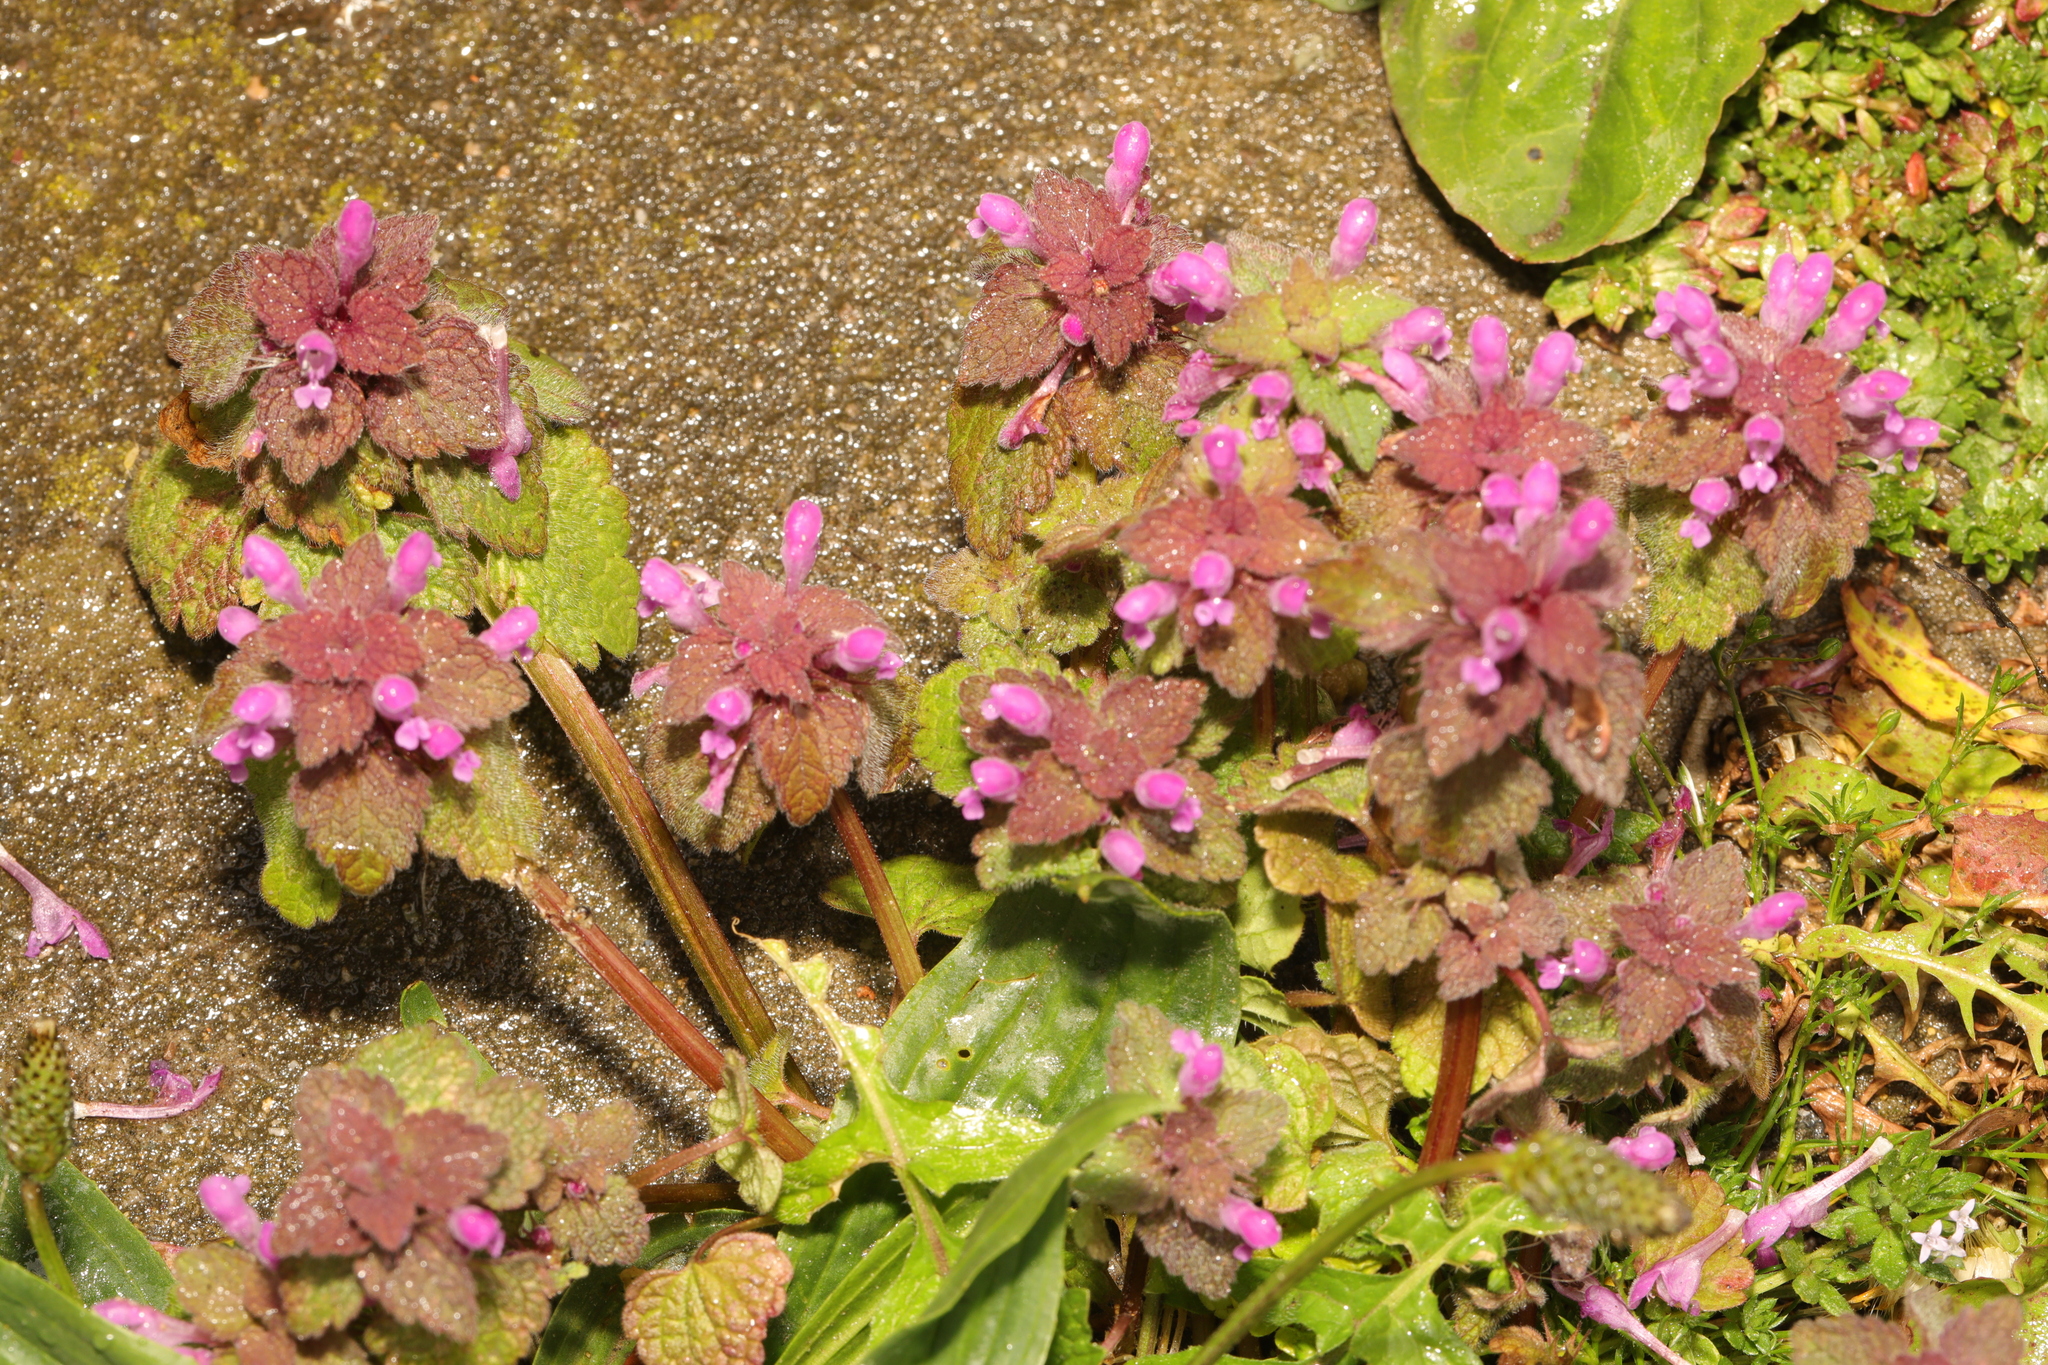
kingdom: Plantae
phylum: Tracheophyta
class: Magnoliopsida
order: Lamiales
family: Lamiaceae
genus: Lamium
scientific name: Lamium purpureum
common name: Red dead-nettle
